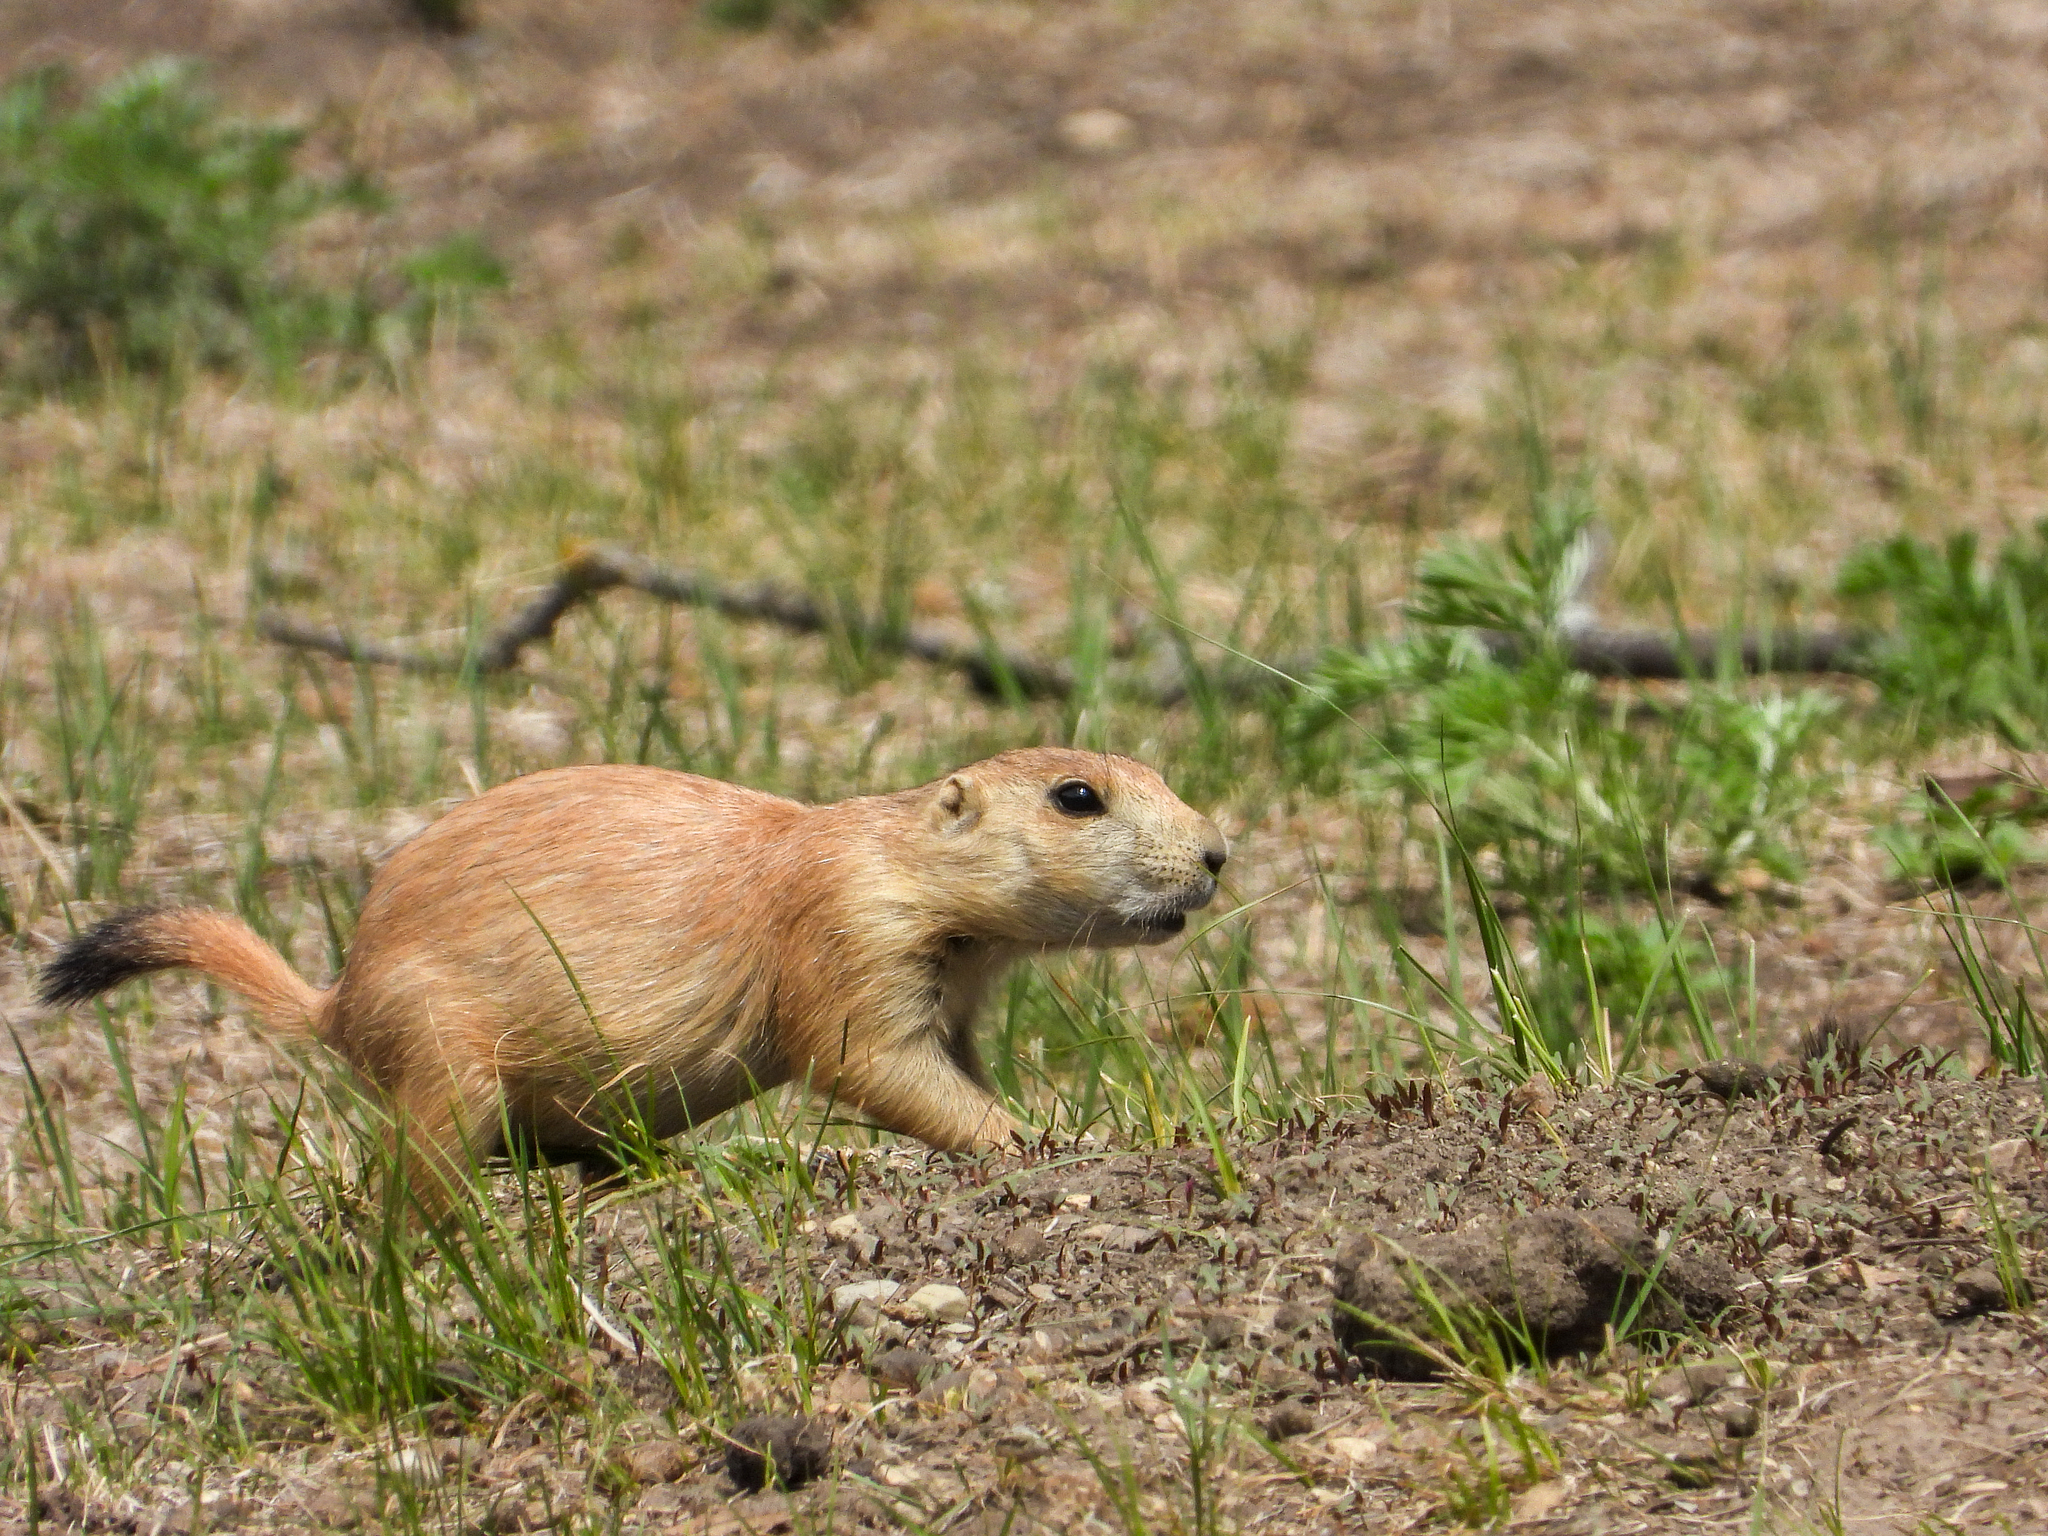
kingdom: Animalia
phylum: Chordata
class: Mammalia
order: Rodentia
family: Sciuridae
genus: Cynomys
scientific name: Cynomys ludovicianus
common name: Black-tailed prairie dog
